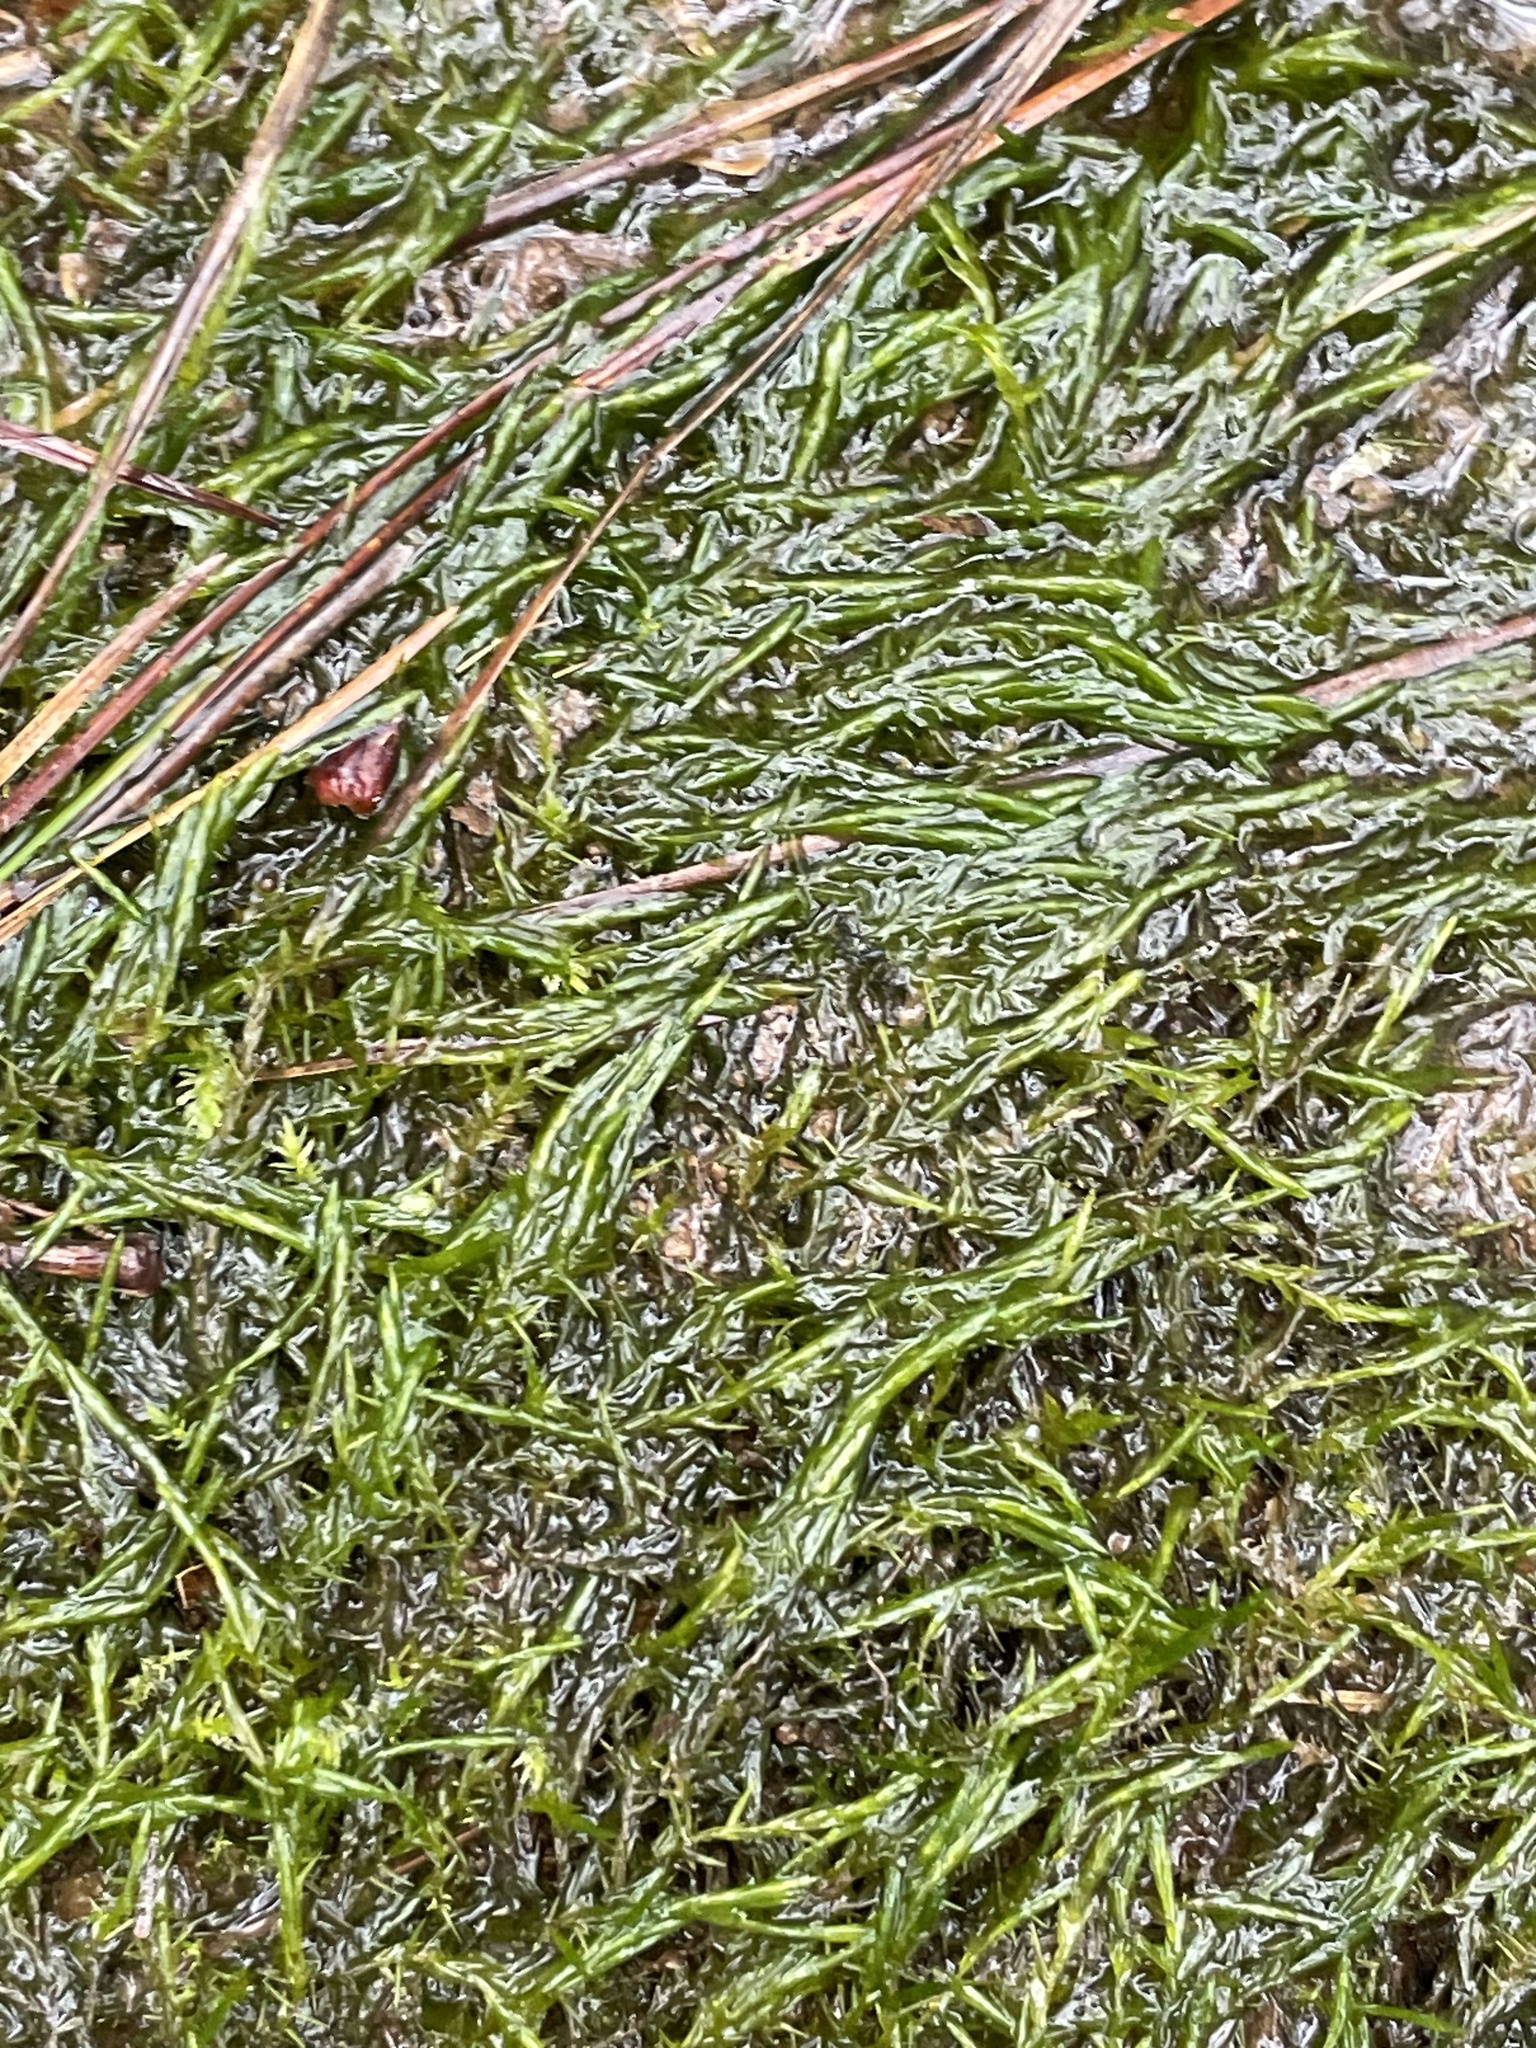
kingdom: Plantae
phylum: Bryophyta
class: Bryopsida
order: Hypnales
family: Fontinalaceae
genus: Fontinalis
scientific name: Fontinalis novae-angliae
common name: New england water moss
